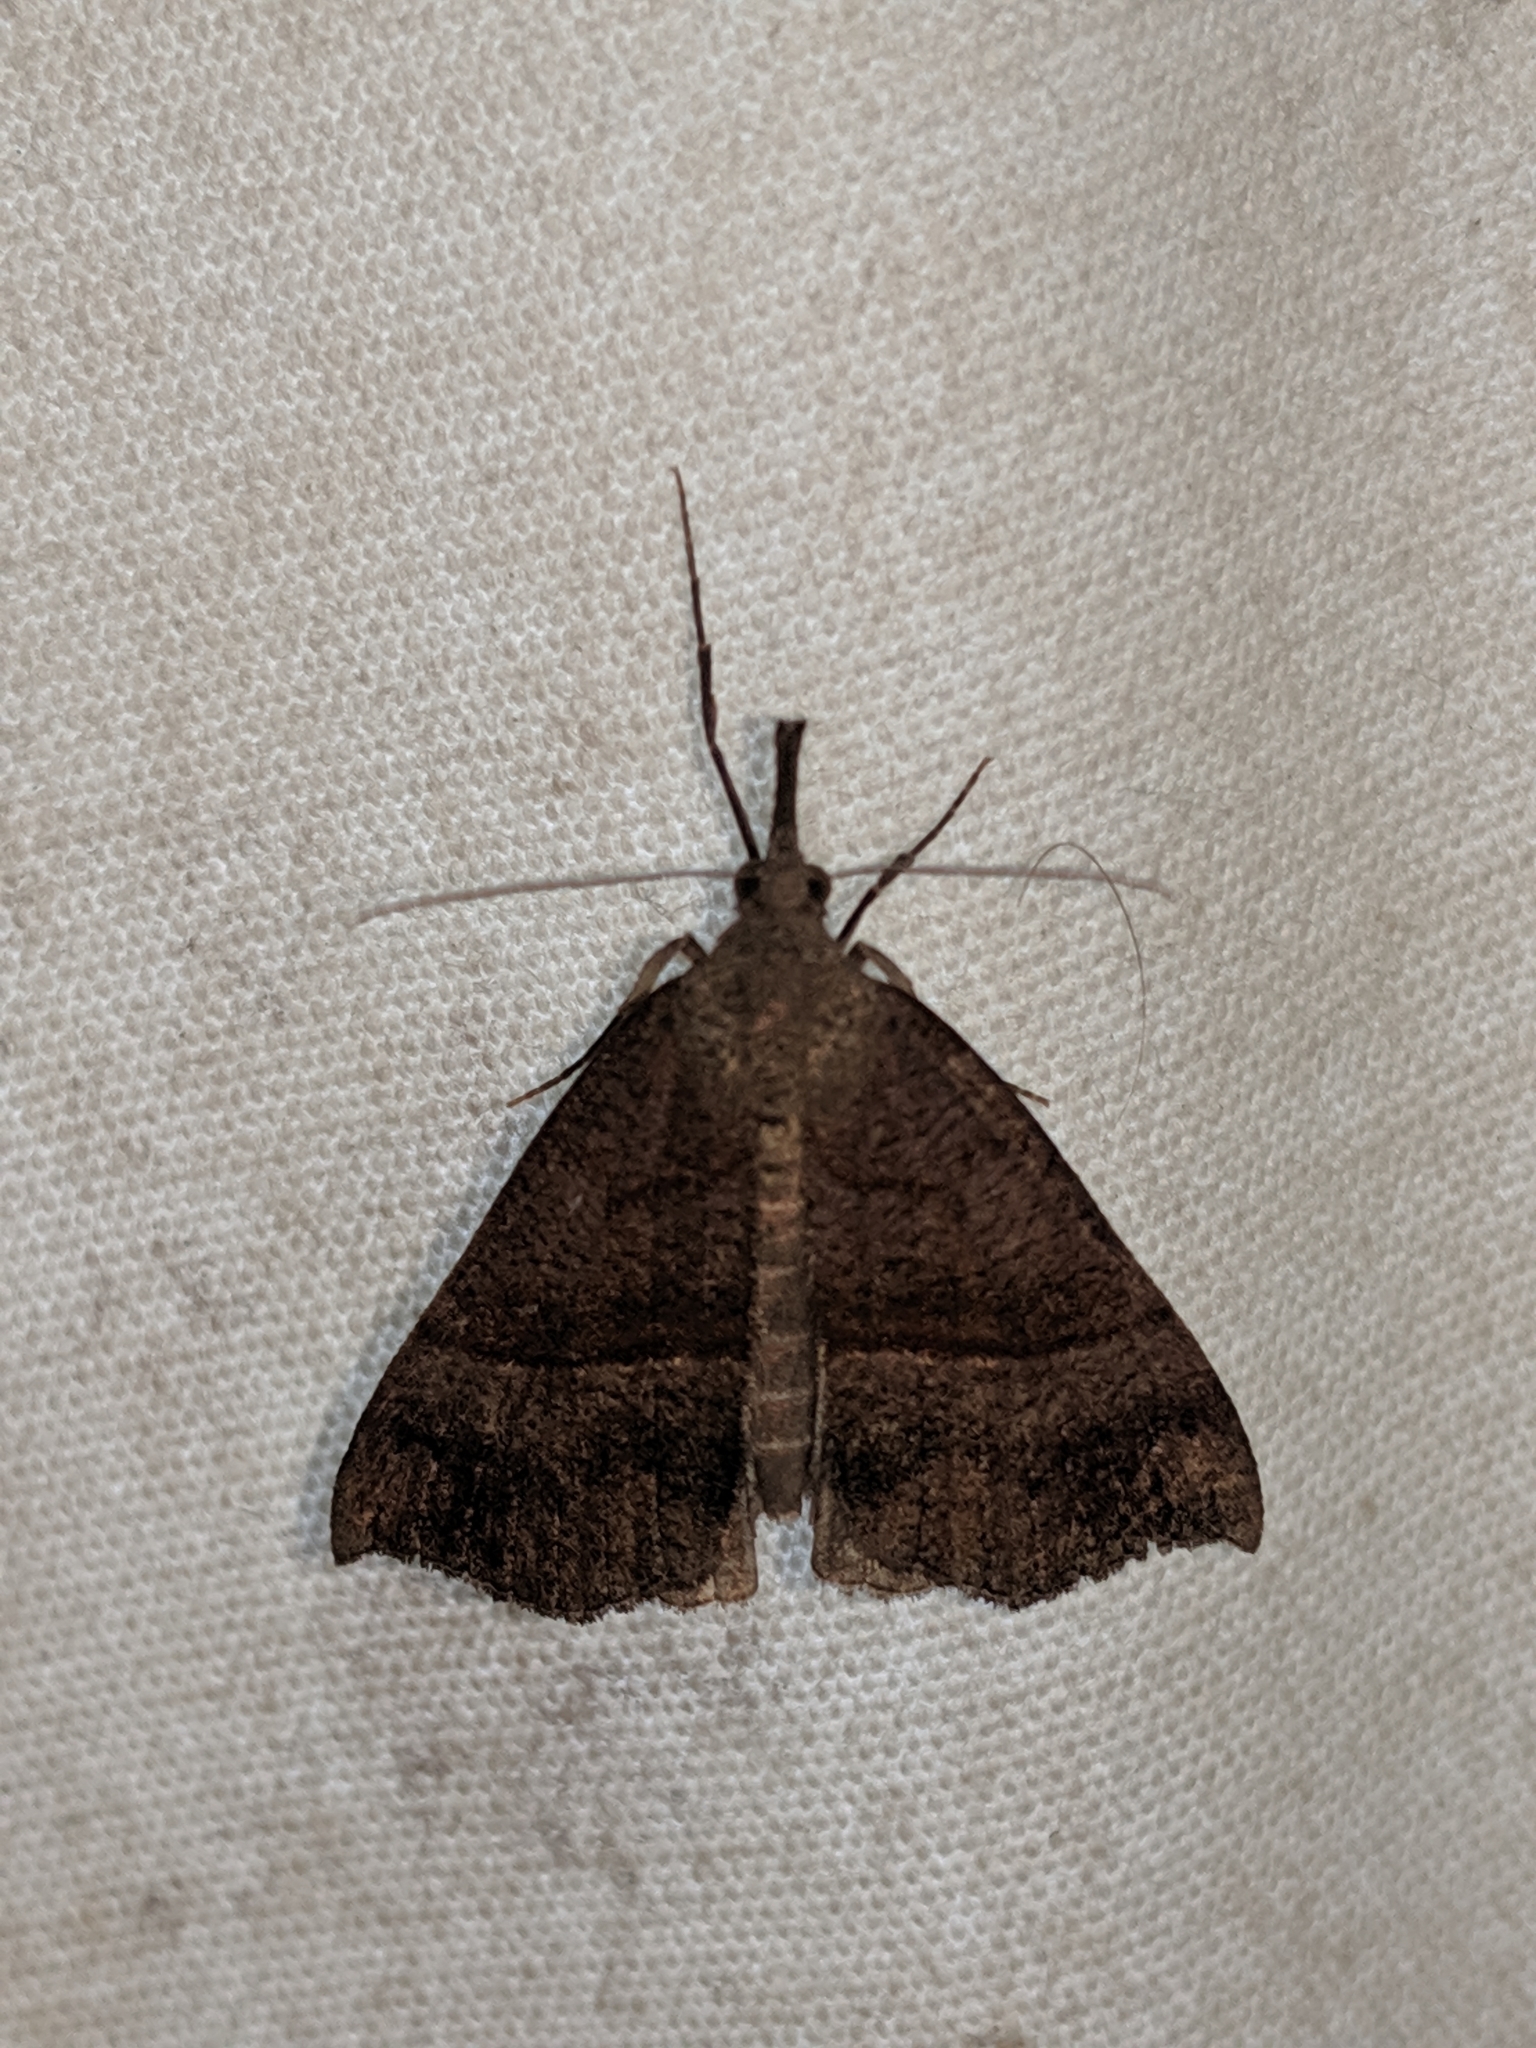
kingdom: Animalia
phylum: Arthropoda
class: Insecta
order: Lepidoptera
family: Erebidae
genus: Hypena
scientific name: Hypena proboscidalis
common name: Snout
